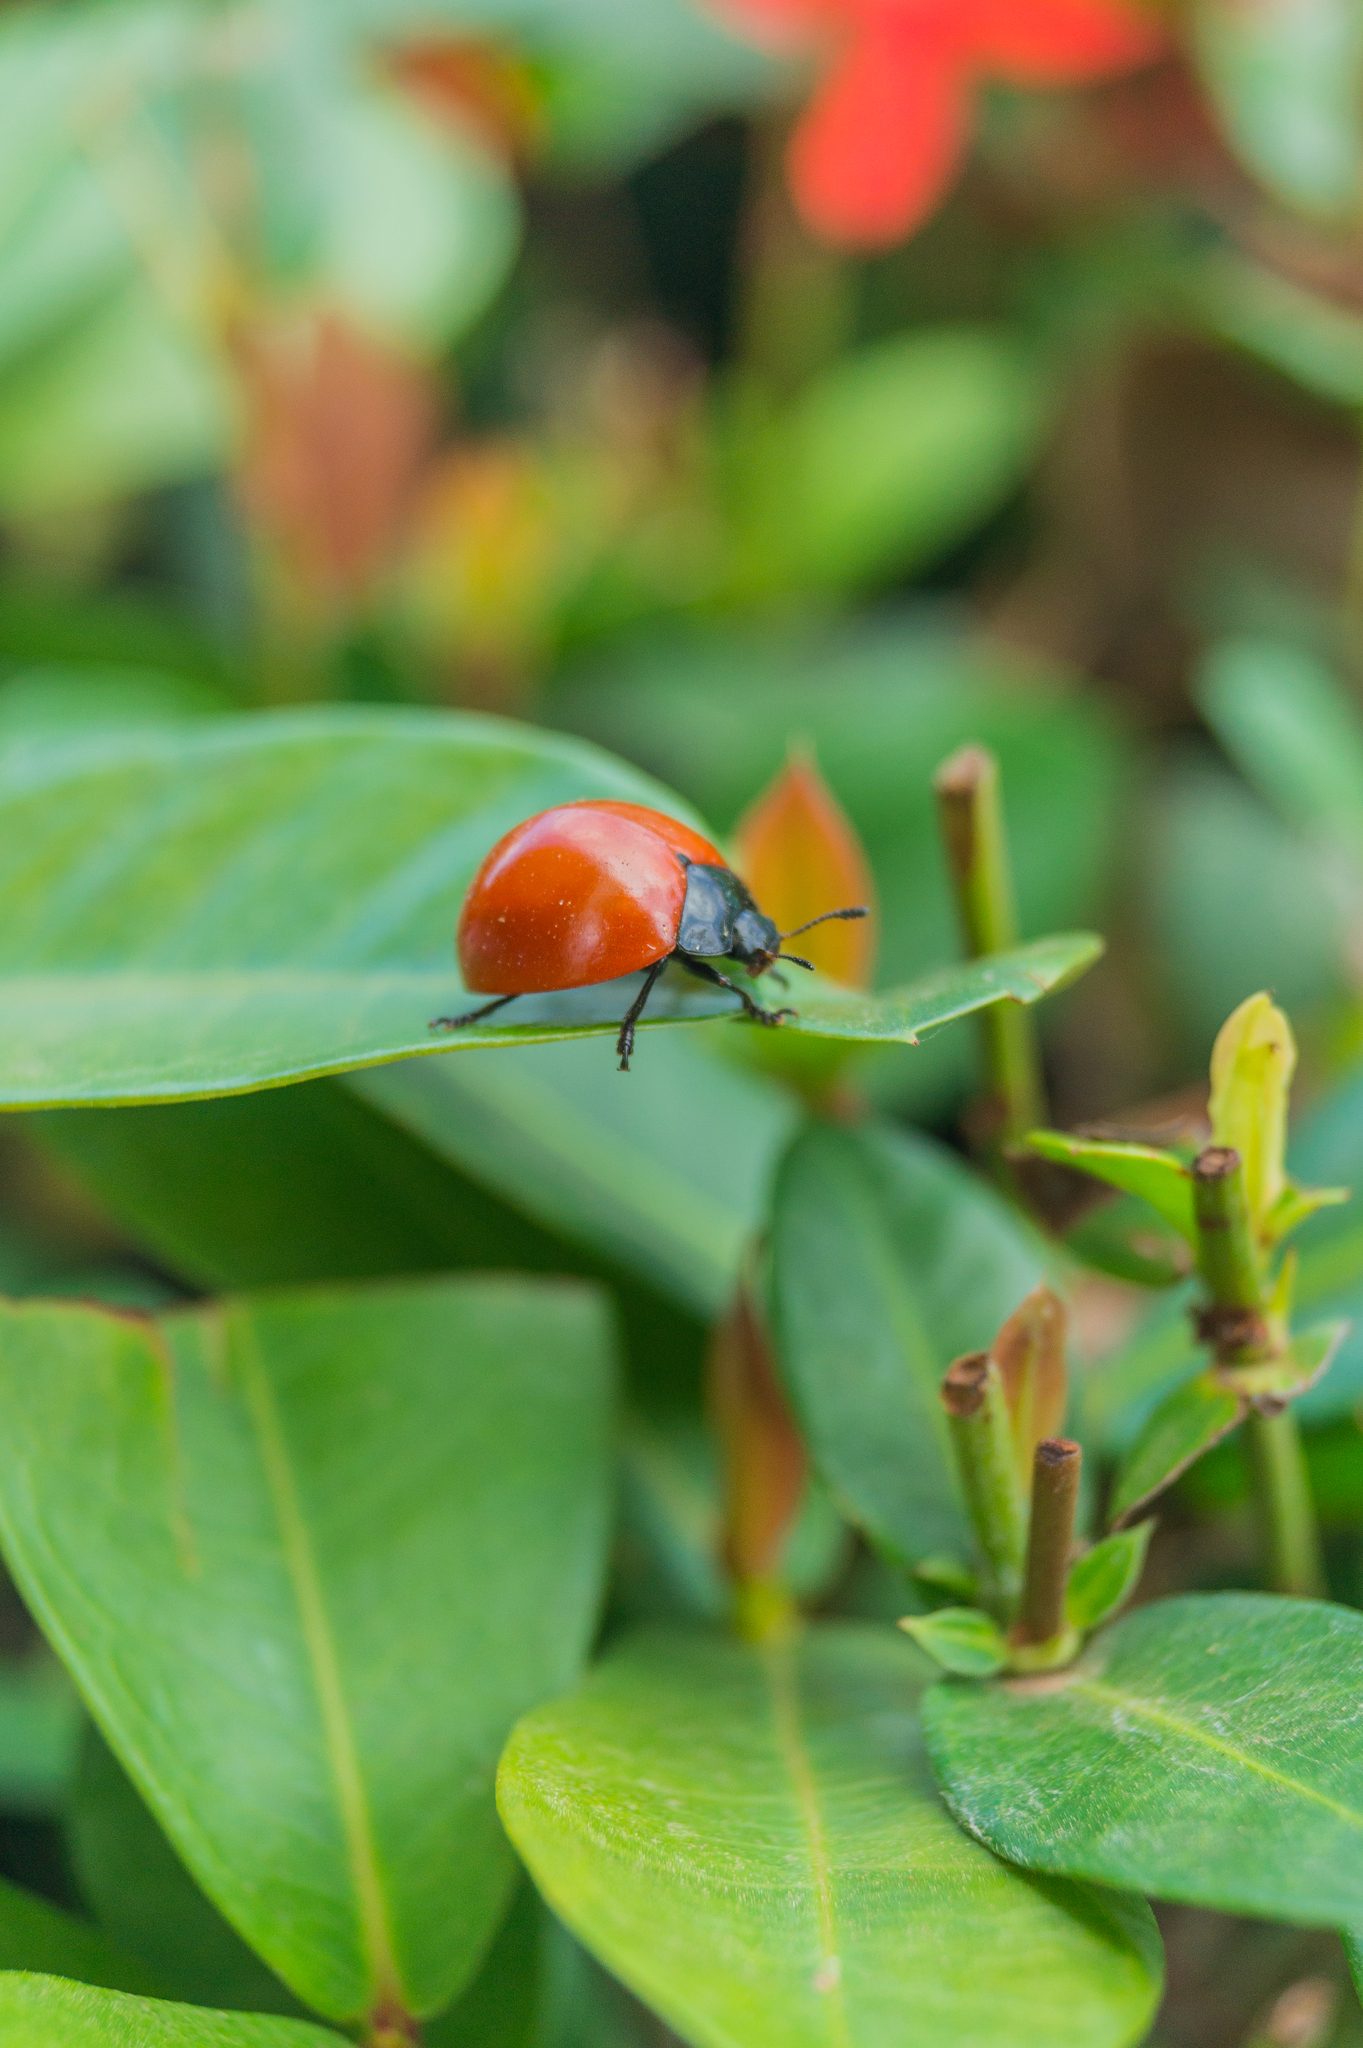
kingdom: Animalia
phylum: Arthropoda
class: Insecta
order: Coleoptera
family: Erotylidae
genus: Aegithus
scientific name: Aegithus
